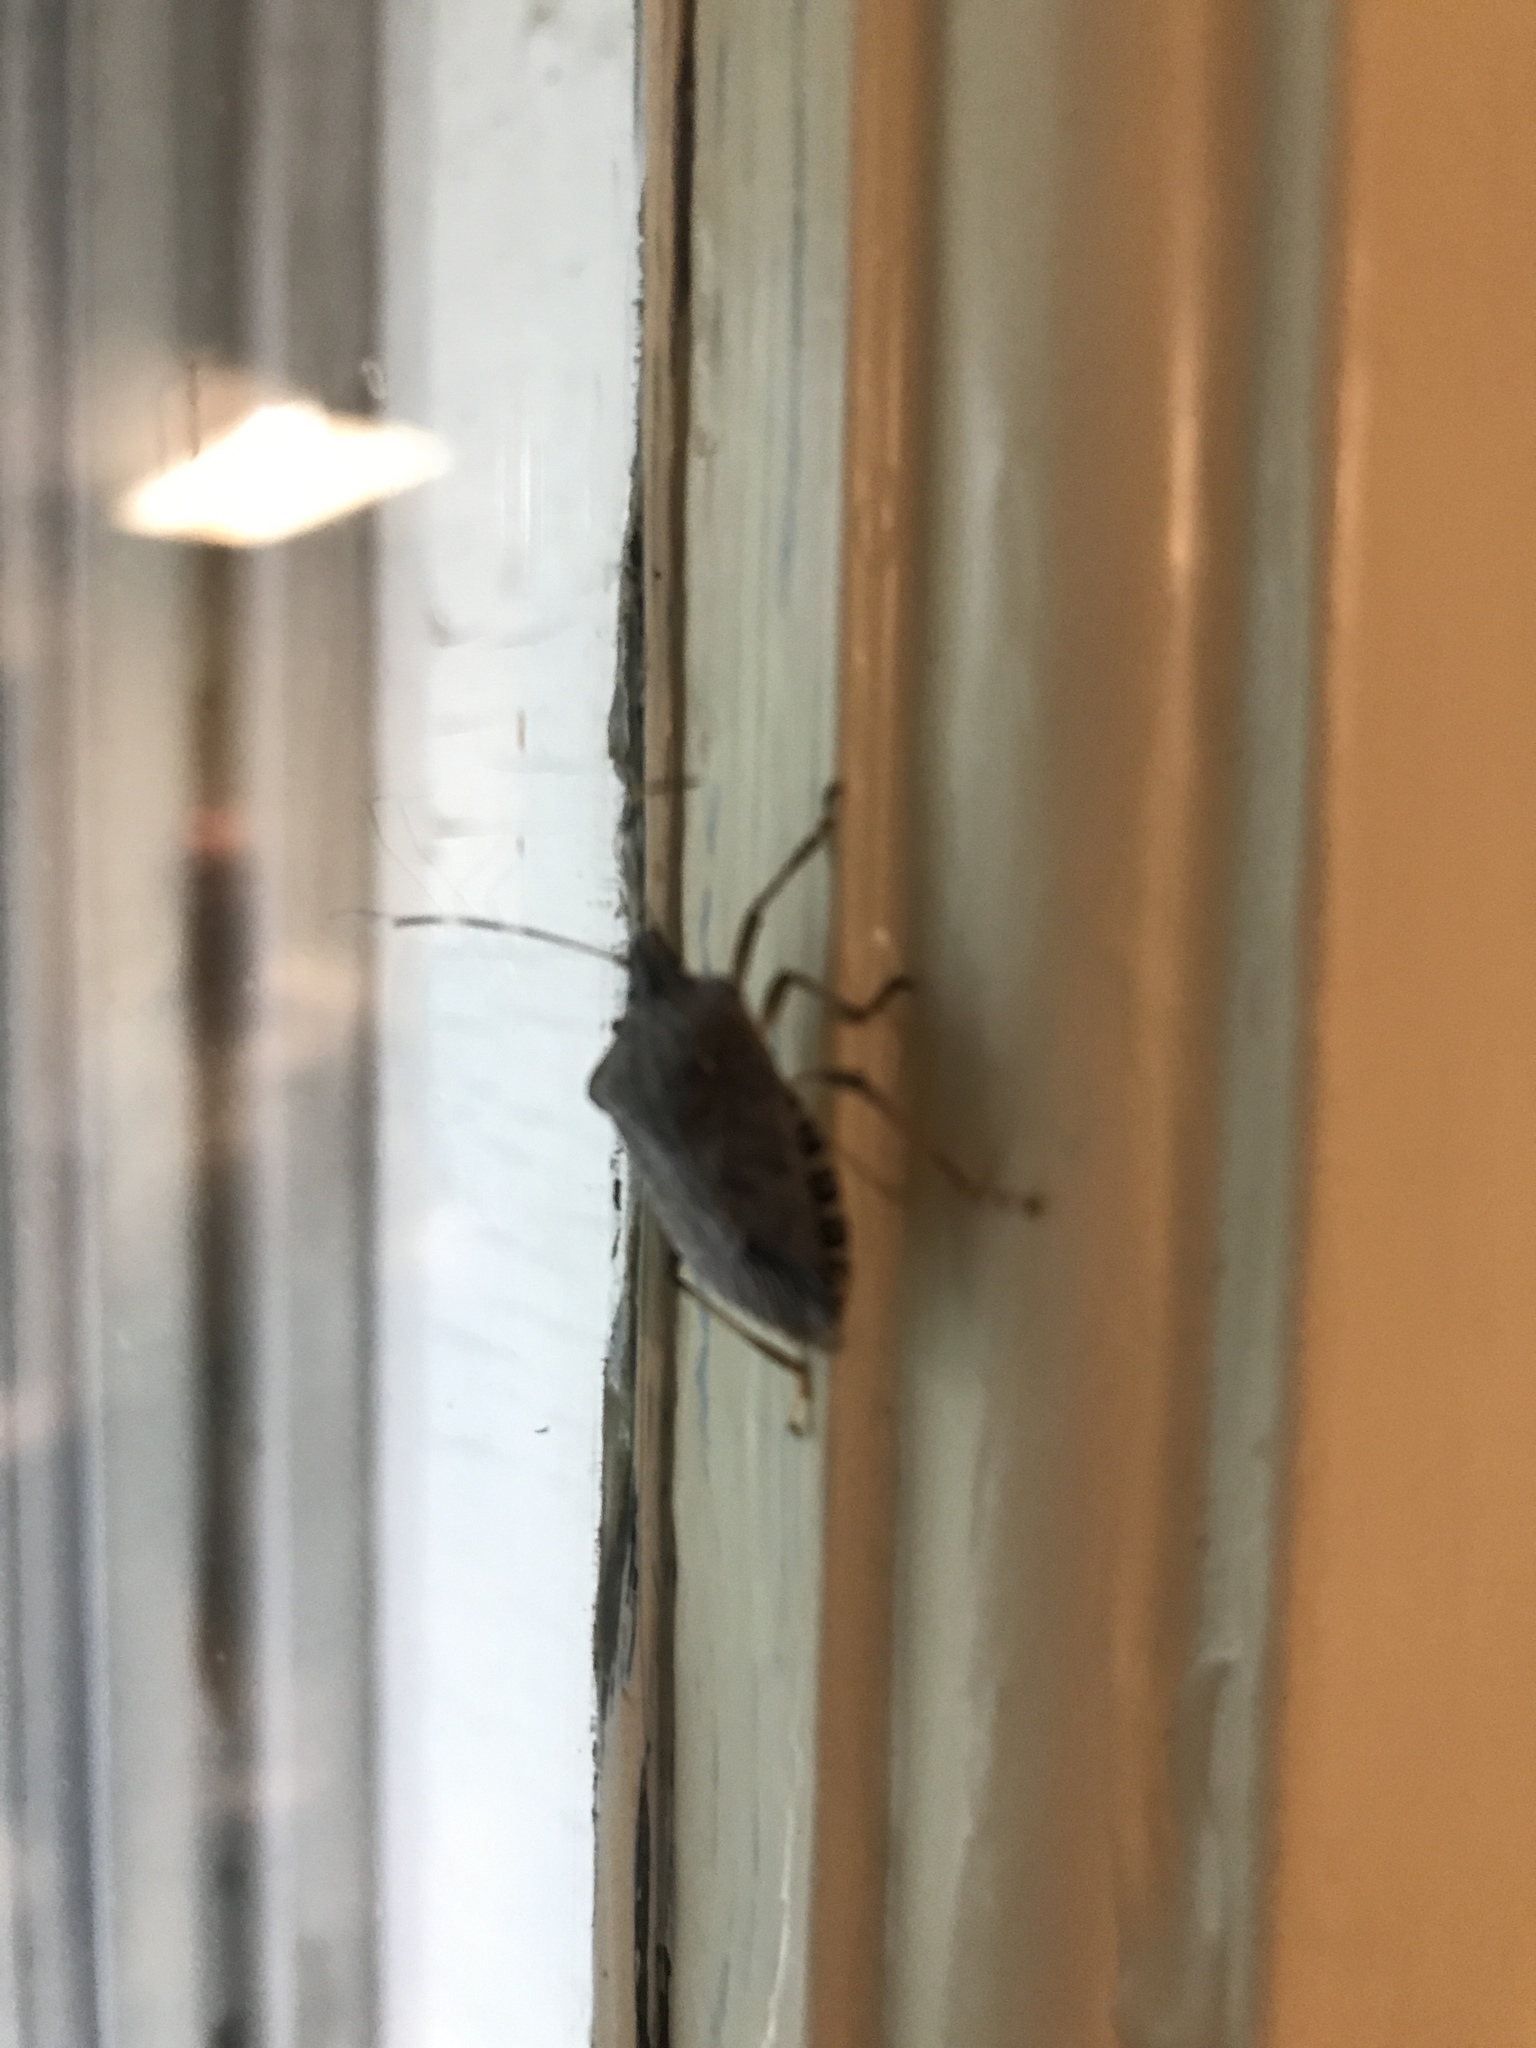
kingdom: Animalia
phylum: Arthropoda
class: Insecta
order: Hemiptera
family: Pentatomidae
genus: Halyomorpha
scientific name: Halyomorpha halys
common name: Brown marmorated stink bug
